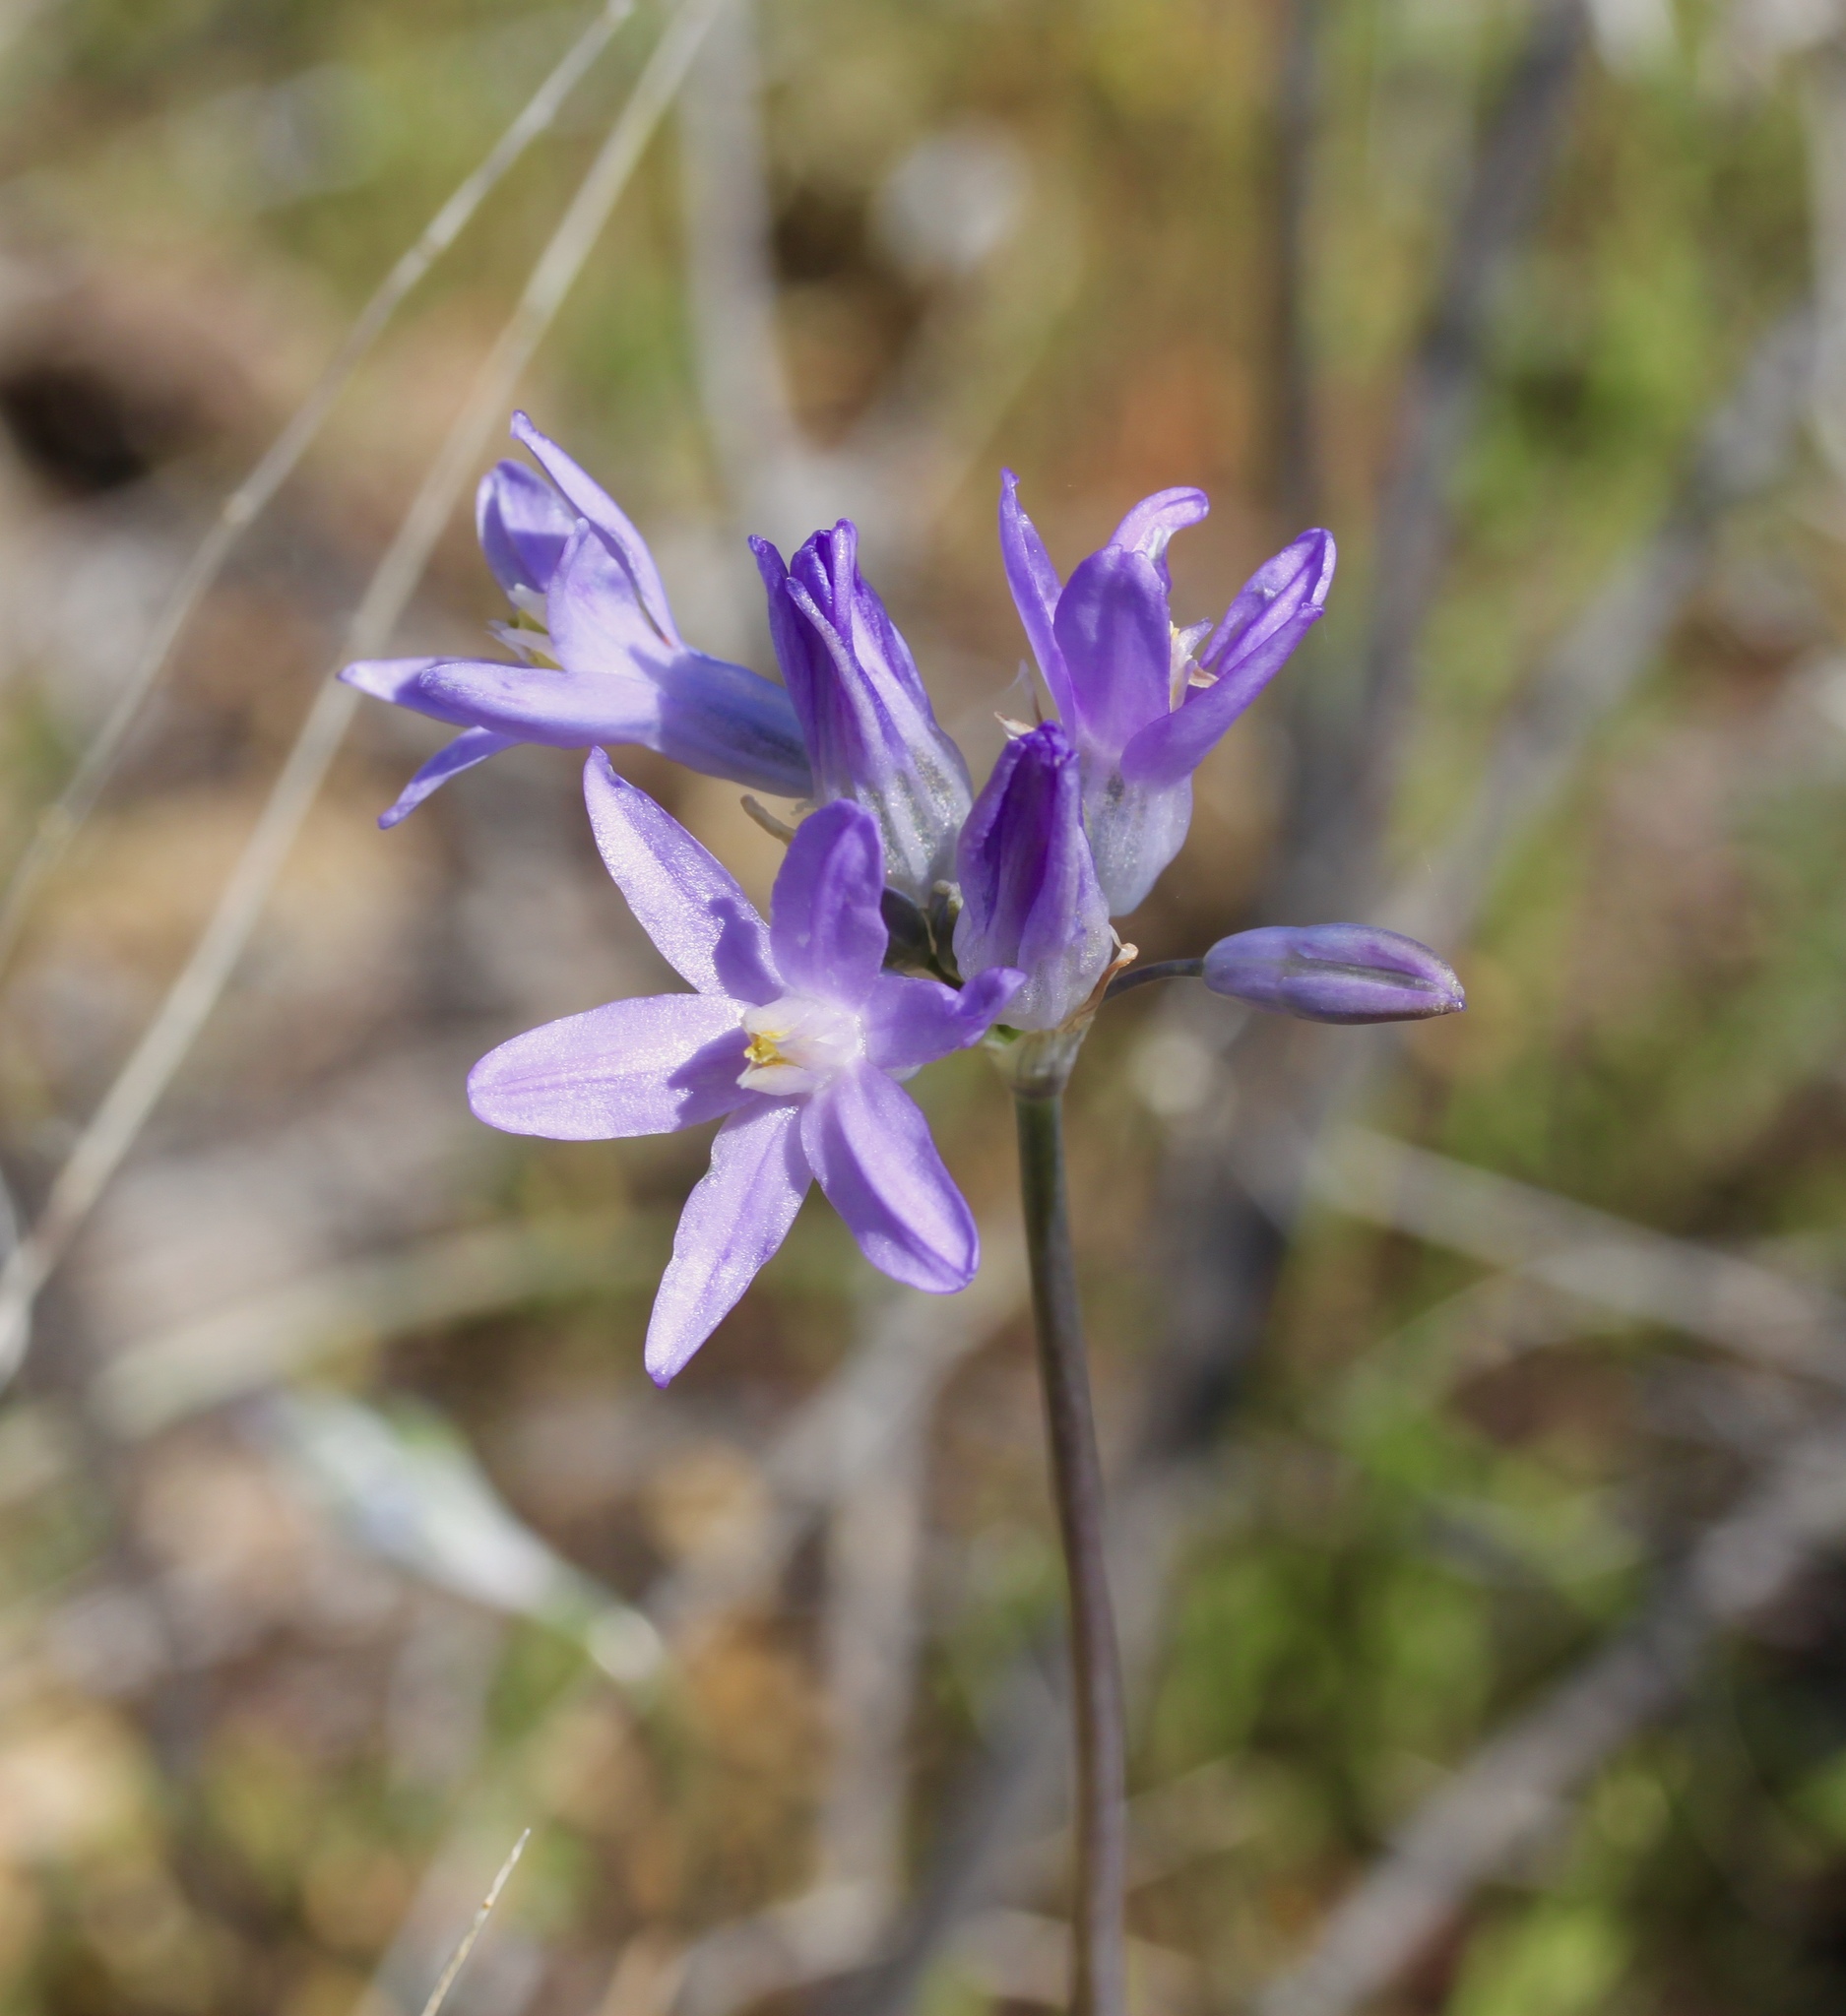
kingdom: Plantae
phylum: Tracheophyta
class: Liliopsida
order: Asparagales
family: Asparagaceae
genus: Dipterostemon
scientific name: Dipterostemon capitatus
